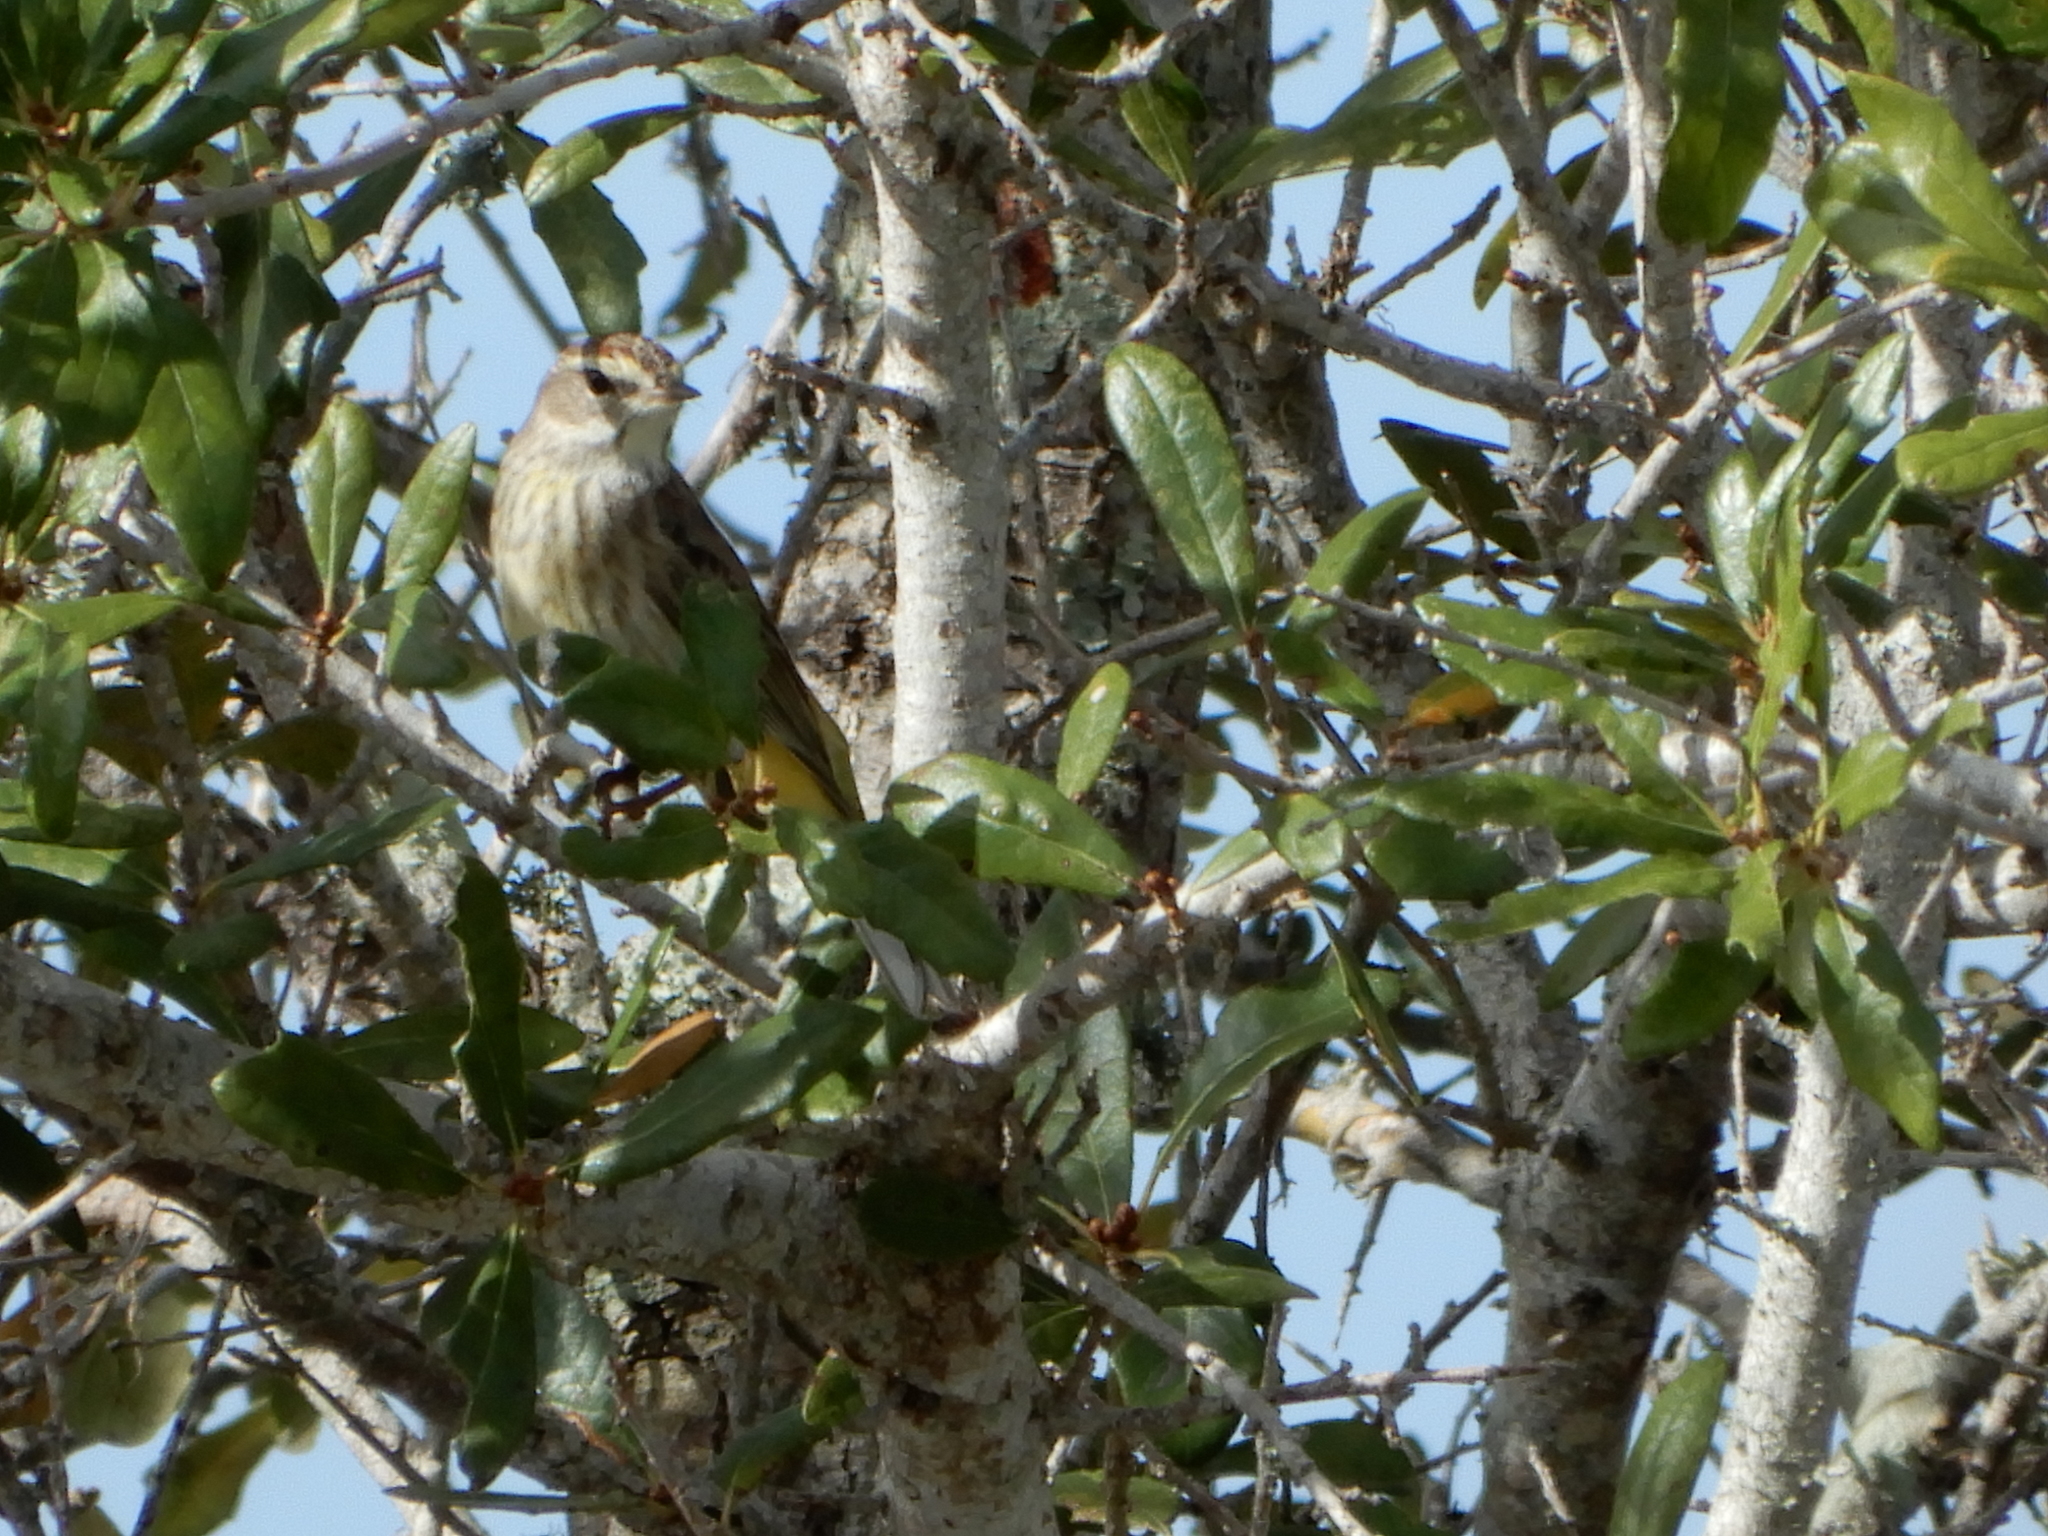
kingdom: Animalia
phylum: Chordata
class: Aves
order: Passeriformes
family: Parulidae
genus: Setophaga
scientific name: Setophaga palmarum
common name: Palm warbler
